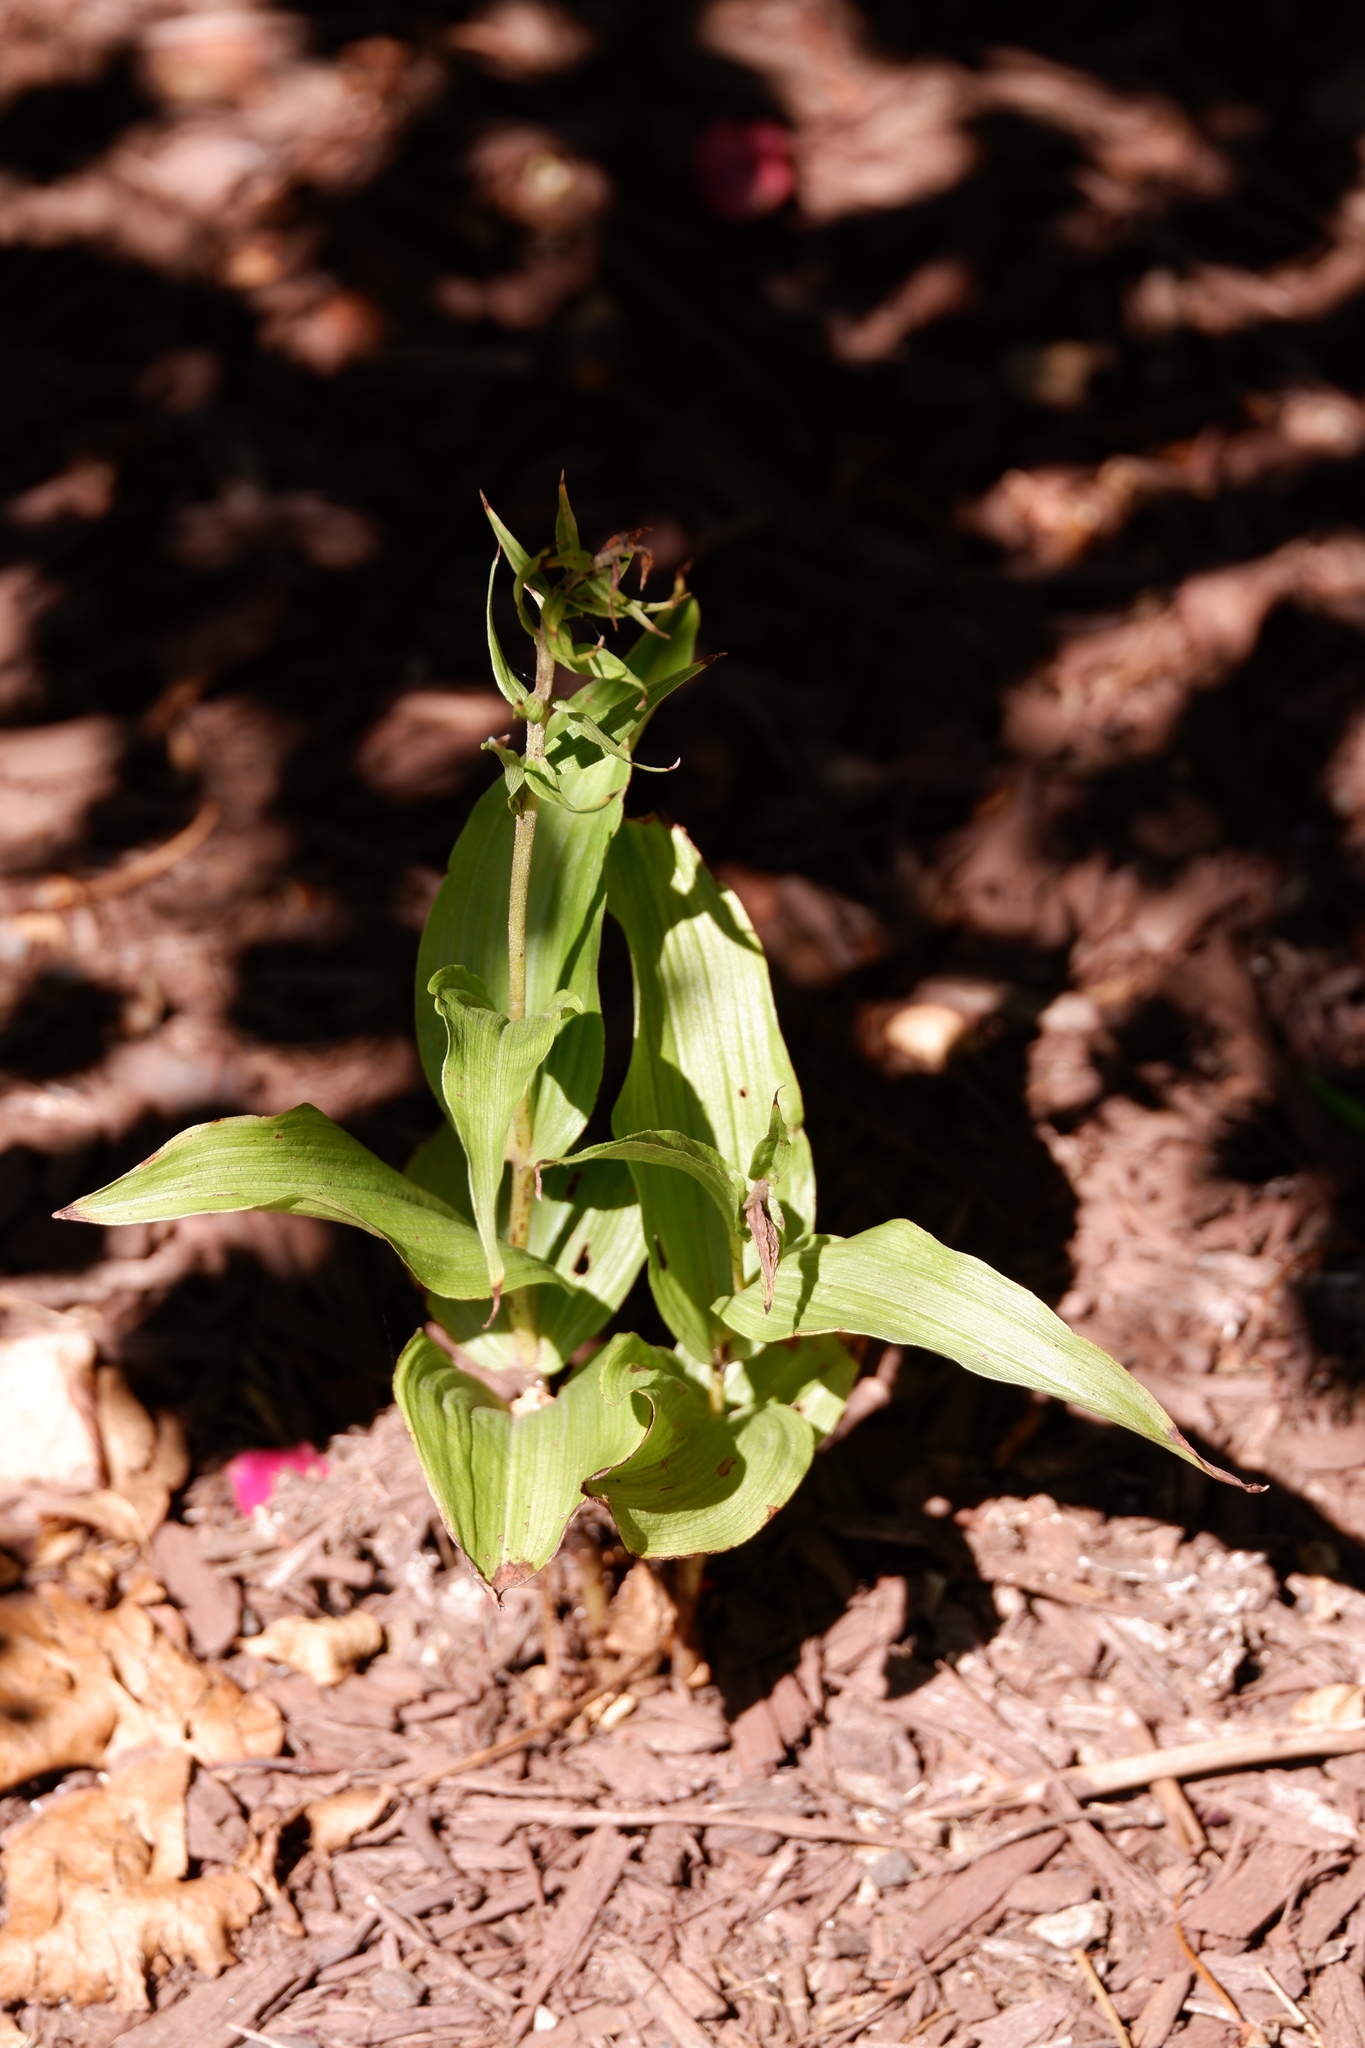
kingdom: Plantae
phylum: Tracheophyta
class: Liliopsida
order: Asparagales
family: Orchidaceae
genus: Epipactis
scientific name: Epipactis helleborine
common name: Broad-leaved helleborine
